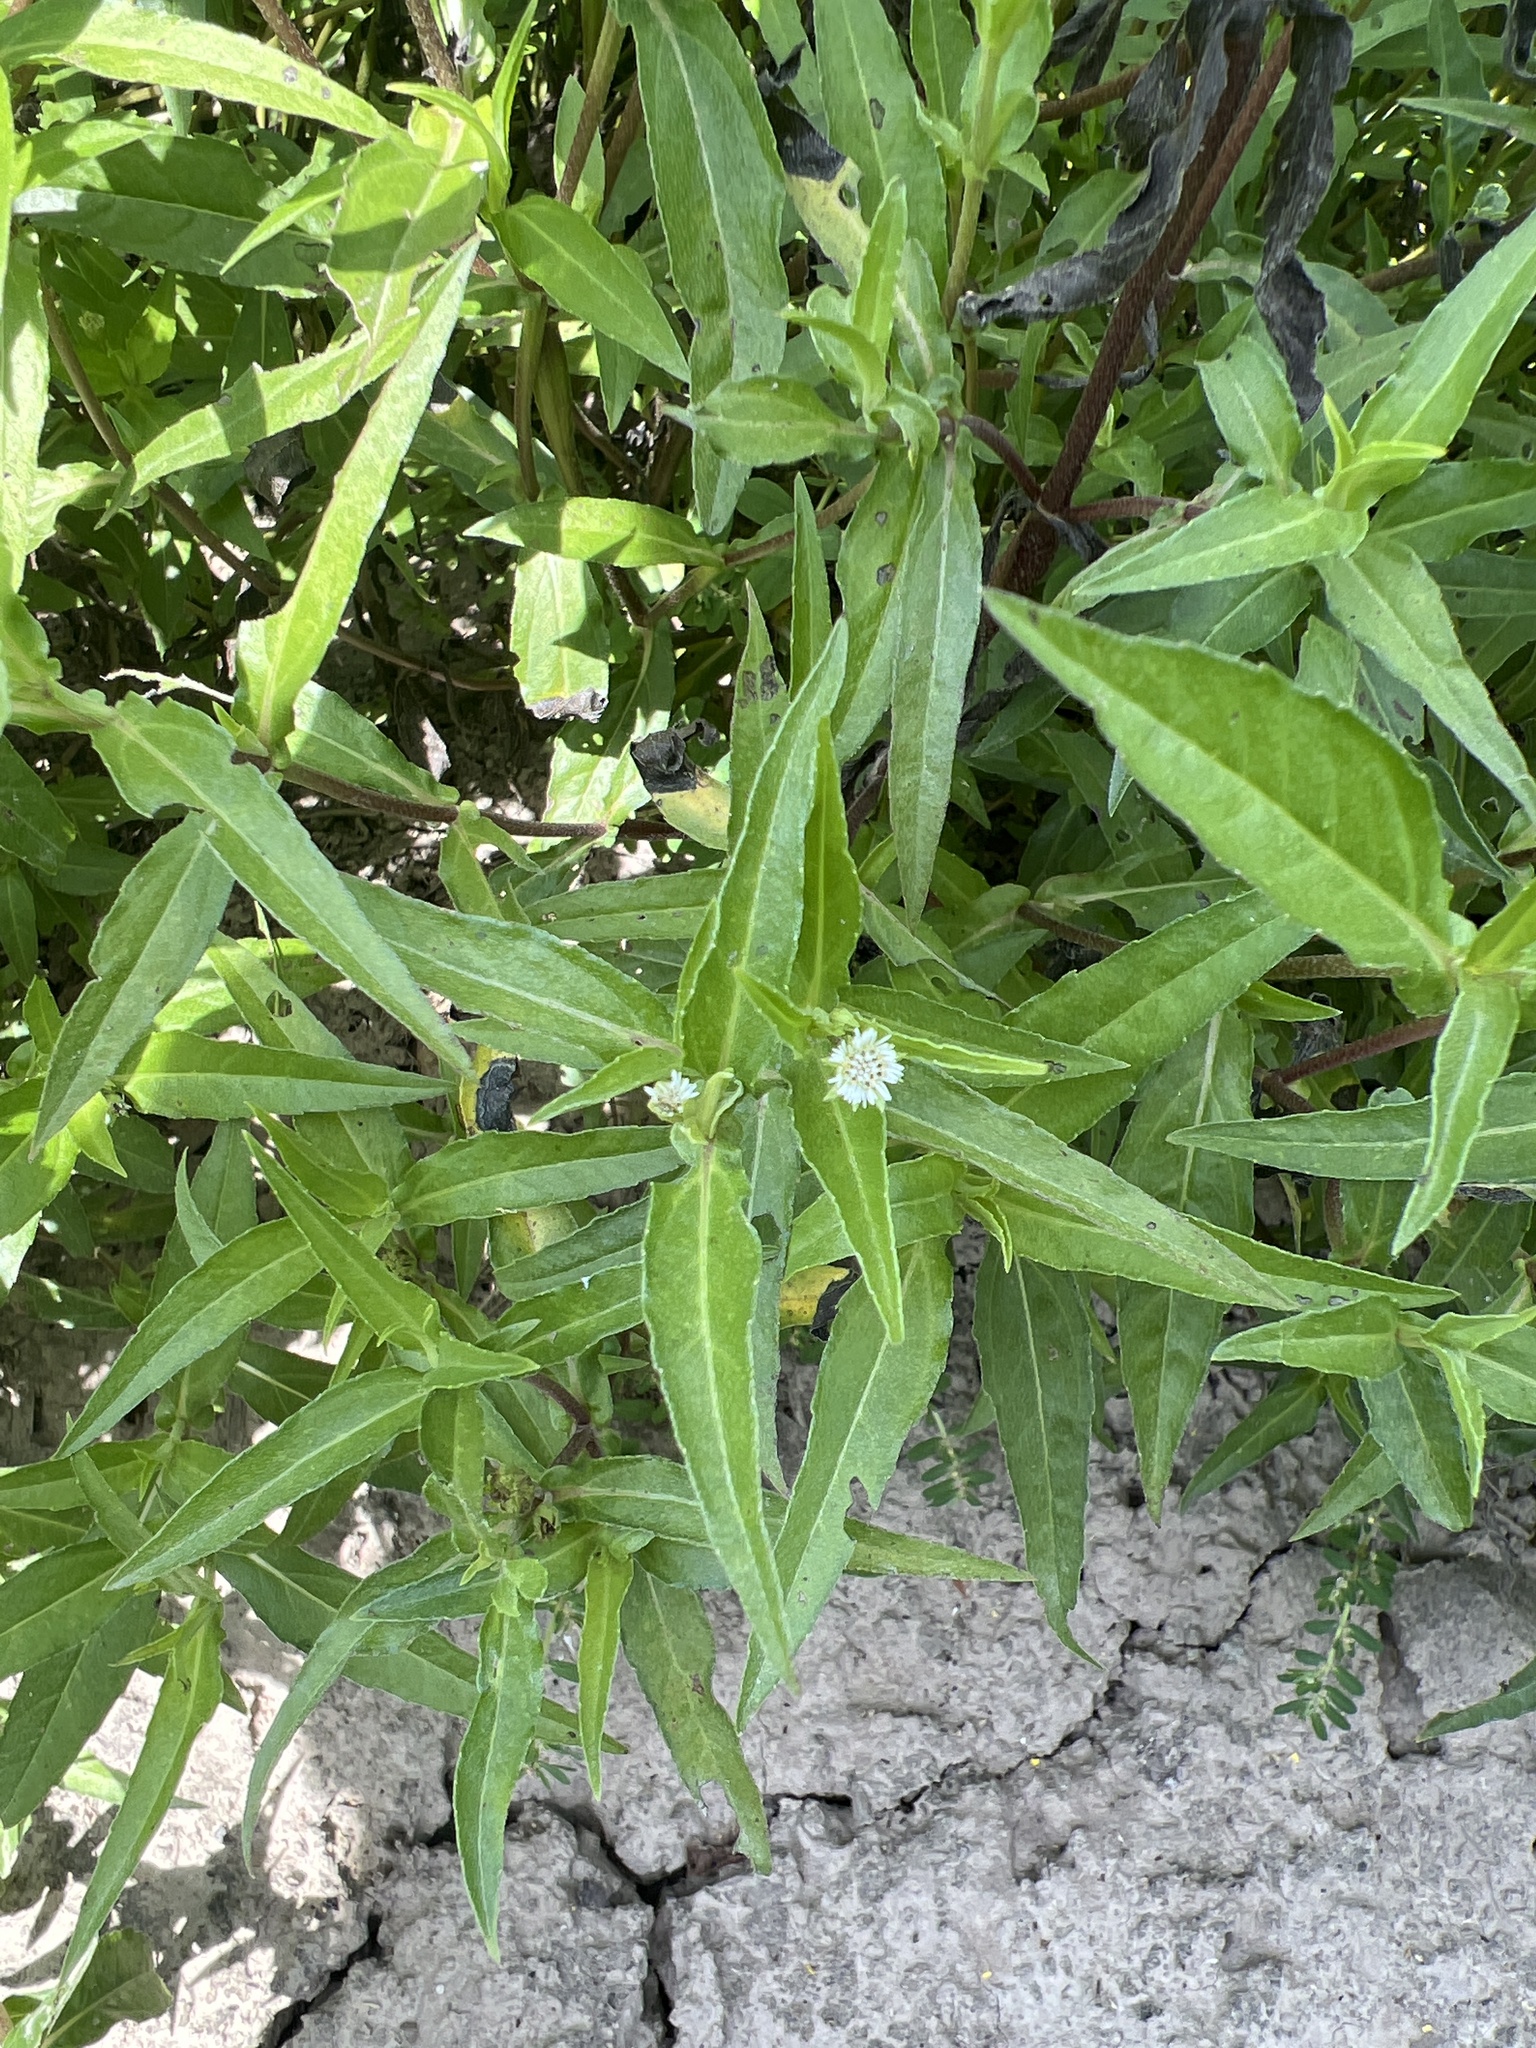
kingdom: Plantae
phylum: Tracheophyta
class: Magnoliopsida
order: Asterales
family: Asteraceae
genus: Eclipta
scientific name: Eclipta prostrata
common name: False daisy
